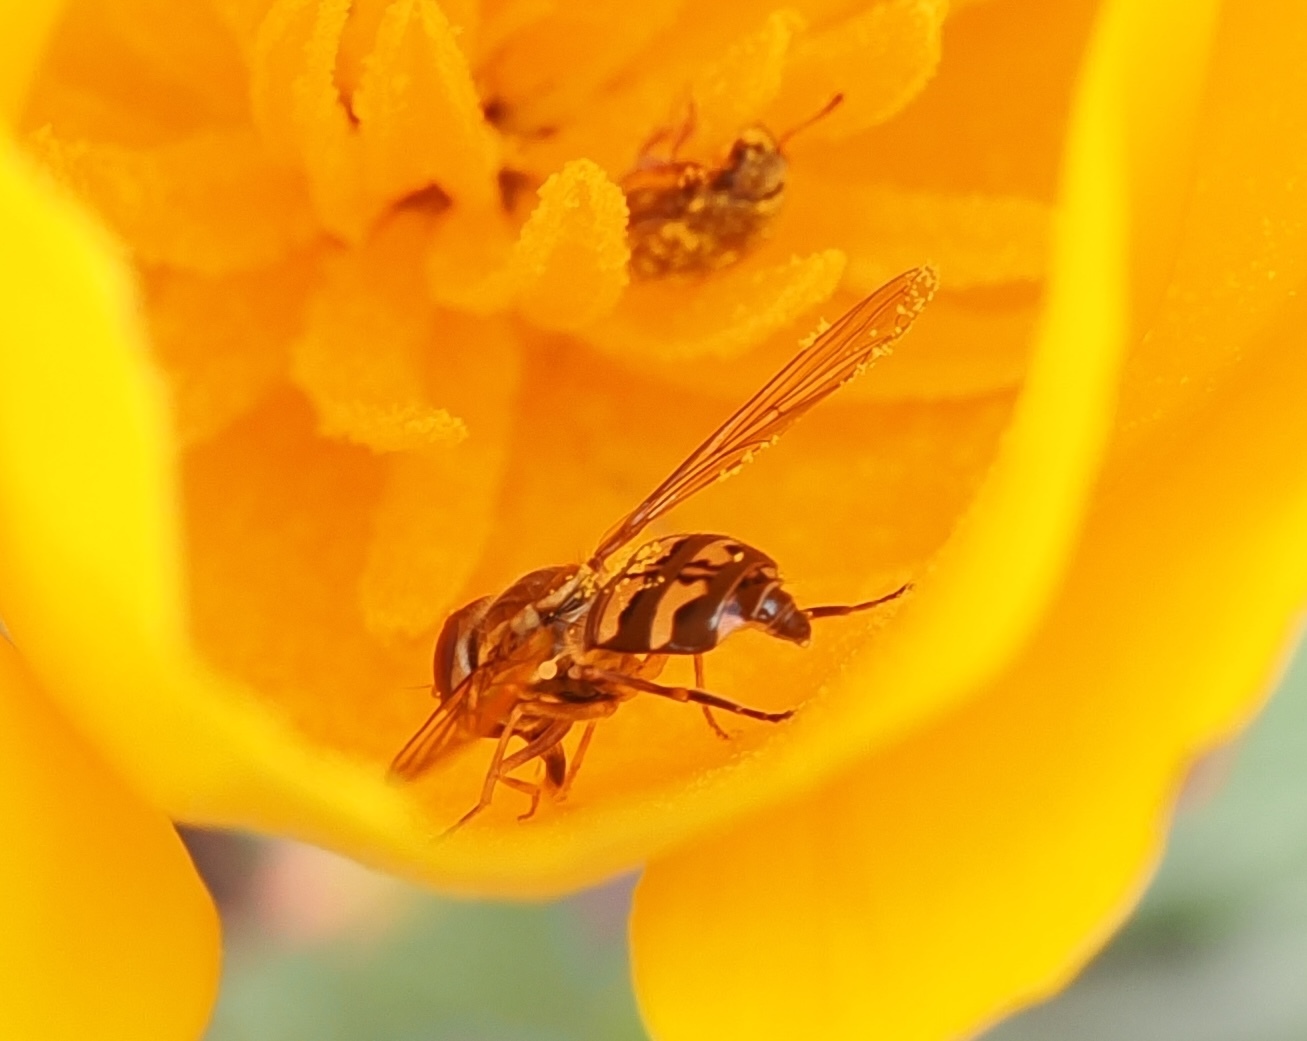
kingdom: Animalia
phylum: Arthropoda
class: Insecta
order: Diptera
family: Syrphidae
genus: Toxomerus
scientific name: Toxomerus occidentalis
